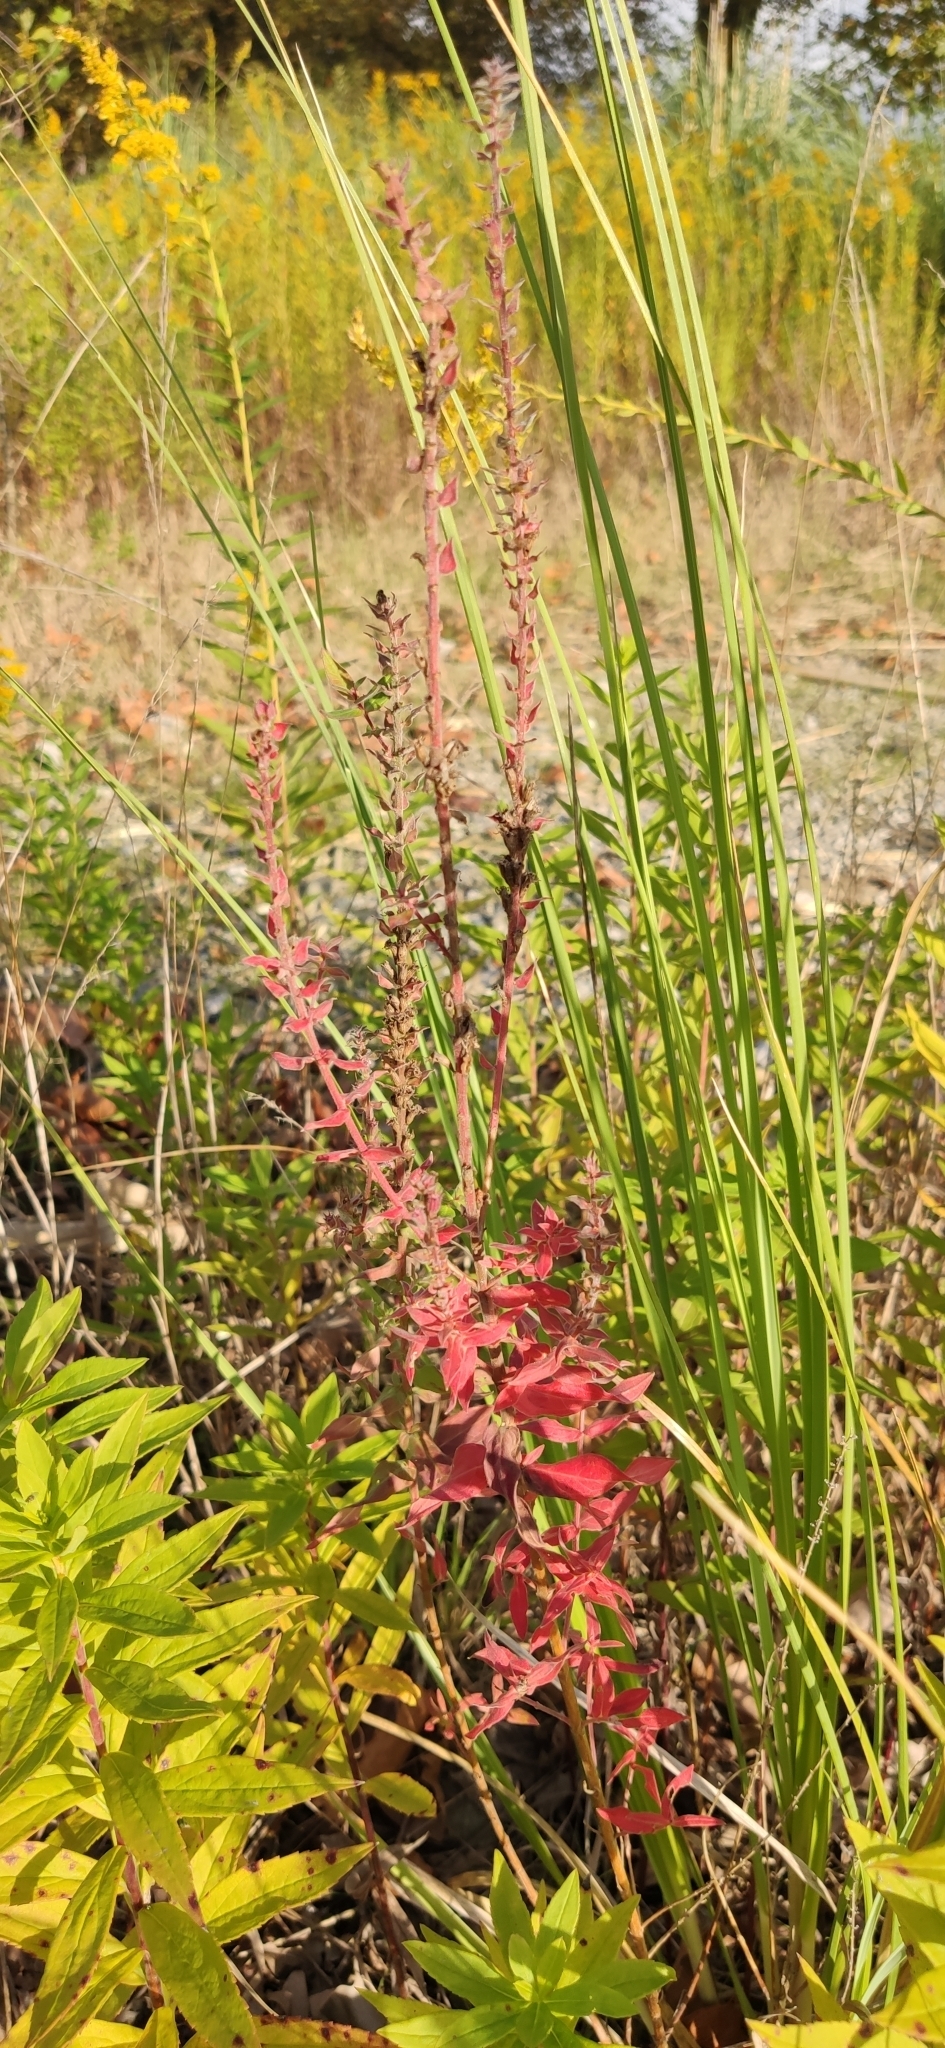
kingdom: Plantae
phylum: Tracheophyta
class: Magnoliopsida
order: Myrtales
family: Lythraceae
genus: Lythrum
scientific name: Lythrum salicaria
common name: Purple loosestrife
